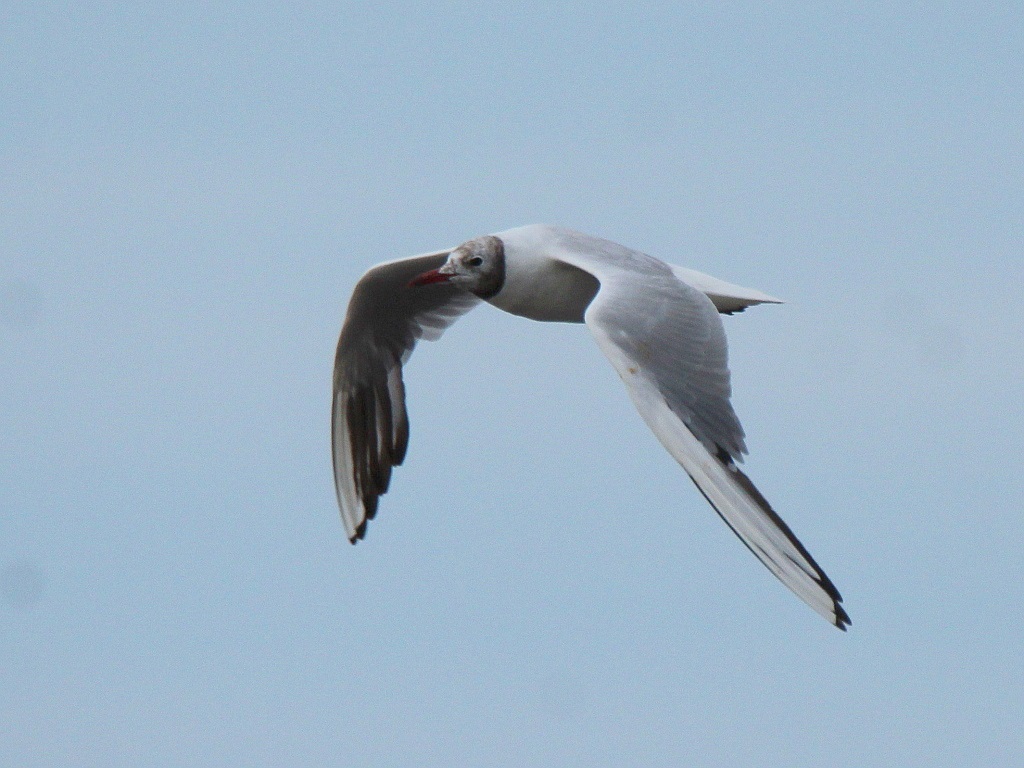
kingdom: Animalia
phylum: Chordata
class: Aves
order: Charadriiformes
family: Laridae
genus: Chroicocephalus
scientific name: Chroicocephalus ridibundus
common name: Black-headed gull
